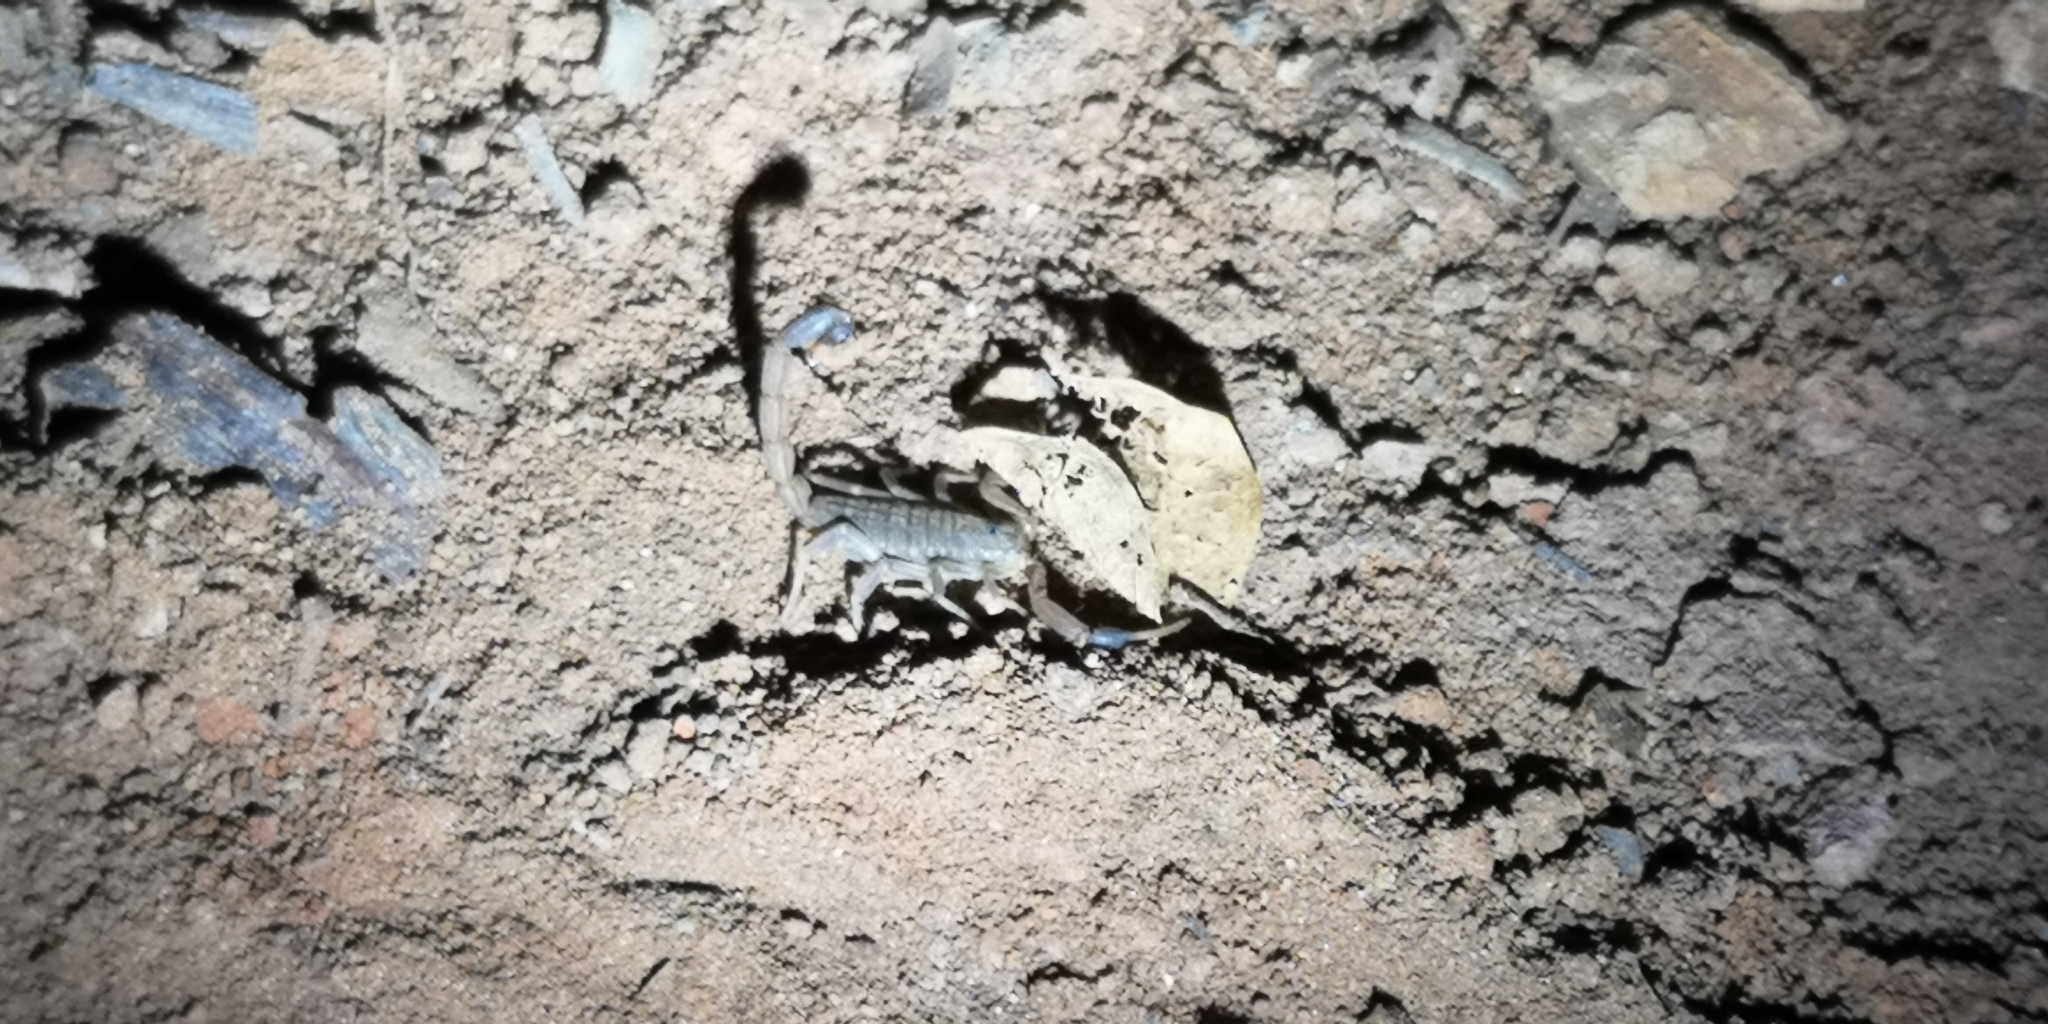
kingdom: Animalia
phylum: Arthropoda
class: Arachnida
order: Scorpiones
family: Buthidae
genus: Hottentotta
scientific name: Hottentotta hottentotta
